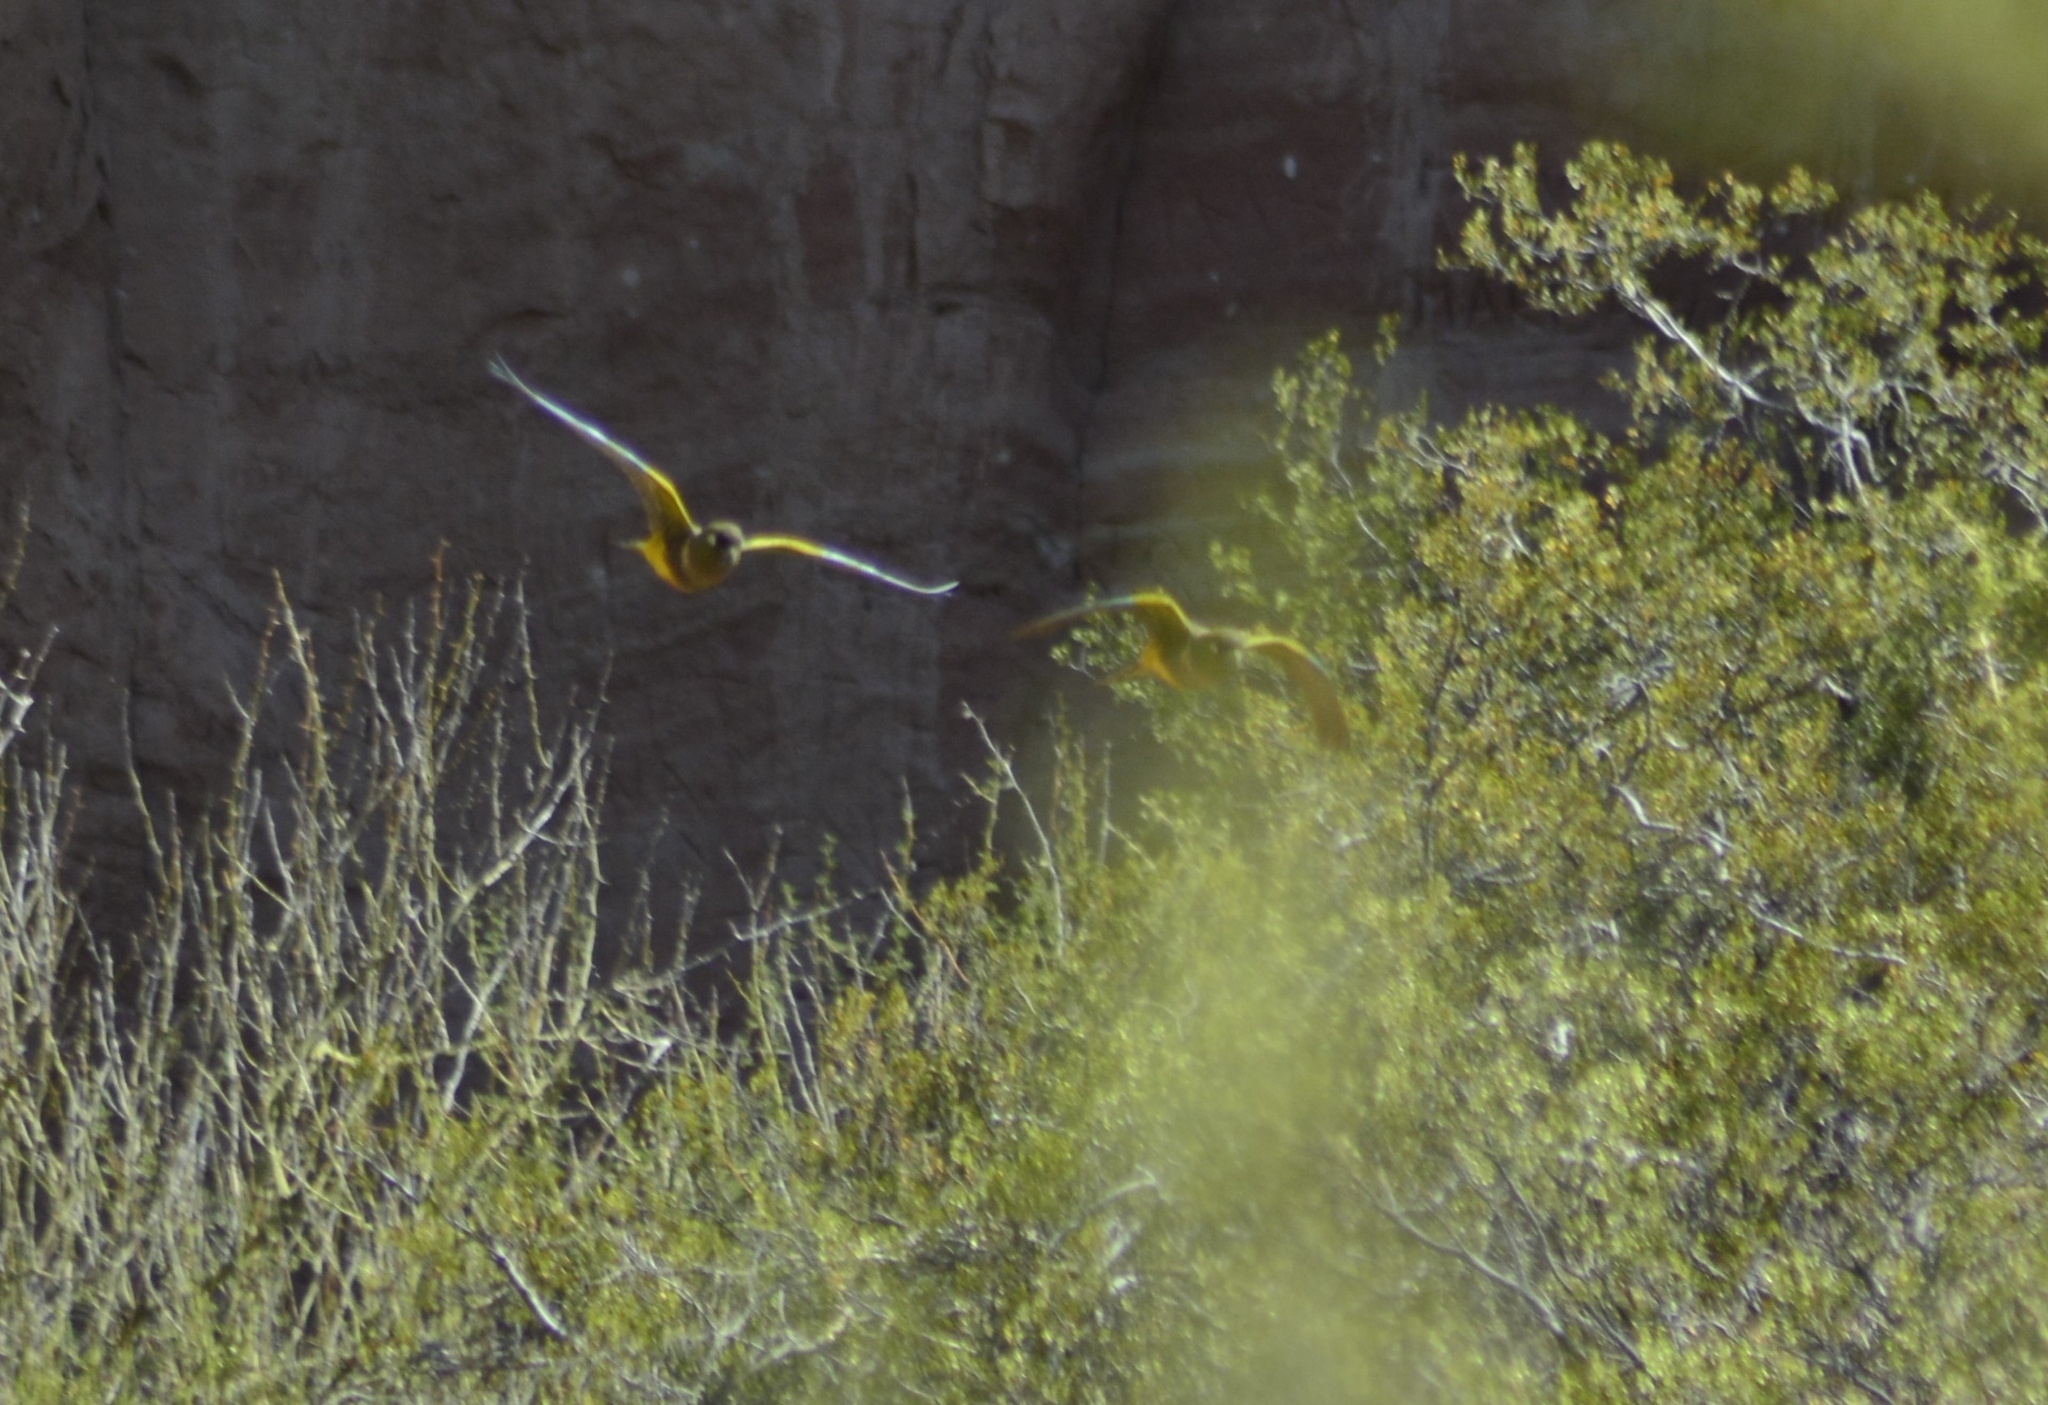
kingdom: Animalia
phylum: Chordata
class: Aves
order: Psittaciformes
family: Psittacidae
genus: Cyanoliseus
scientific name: Cyanoliseus patagonus
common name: Burrowing parrot
